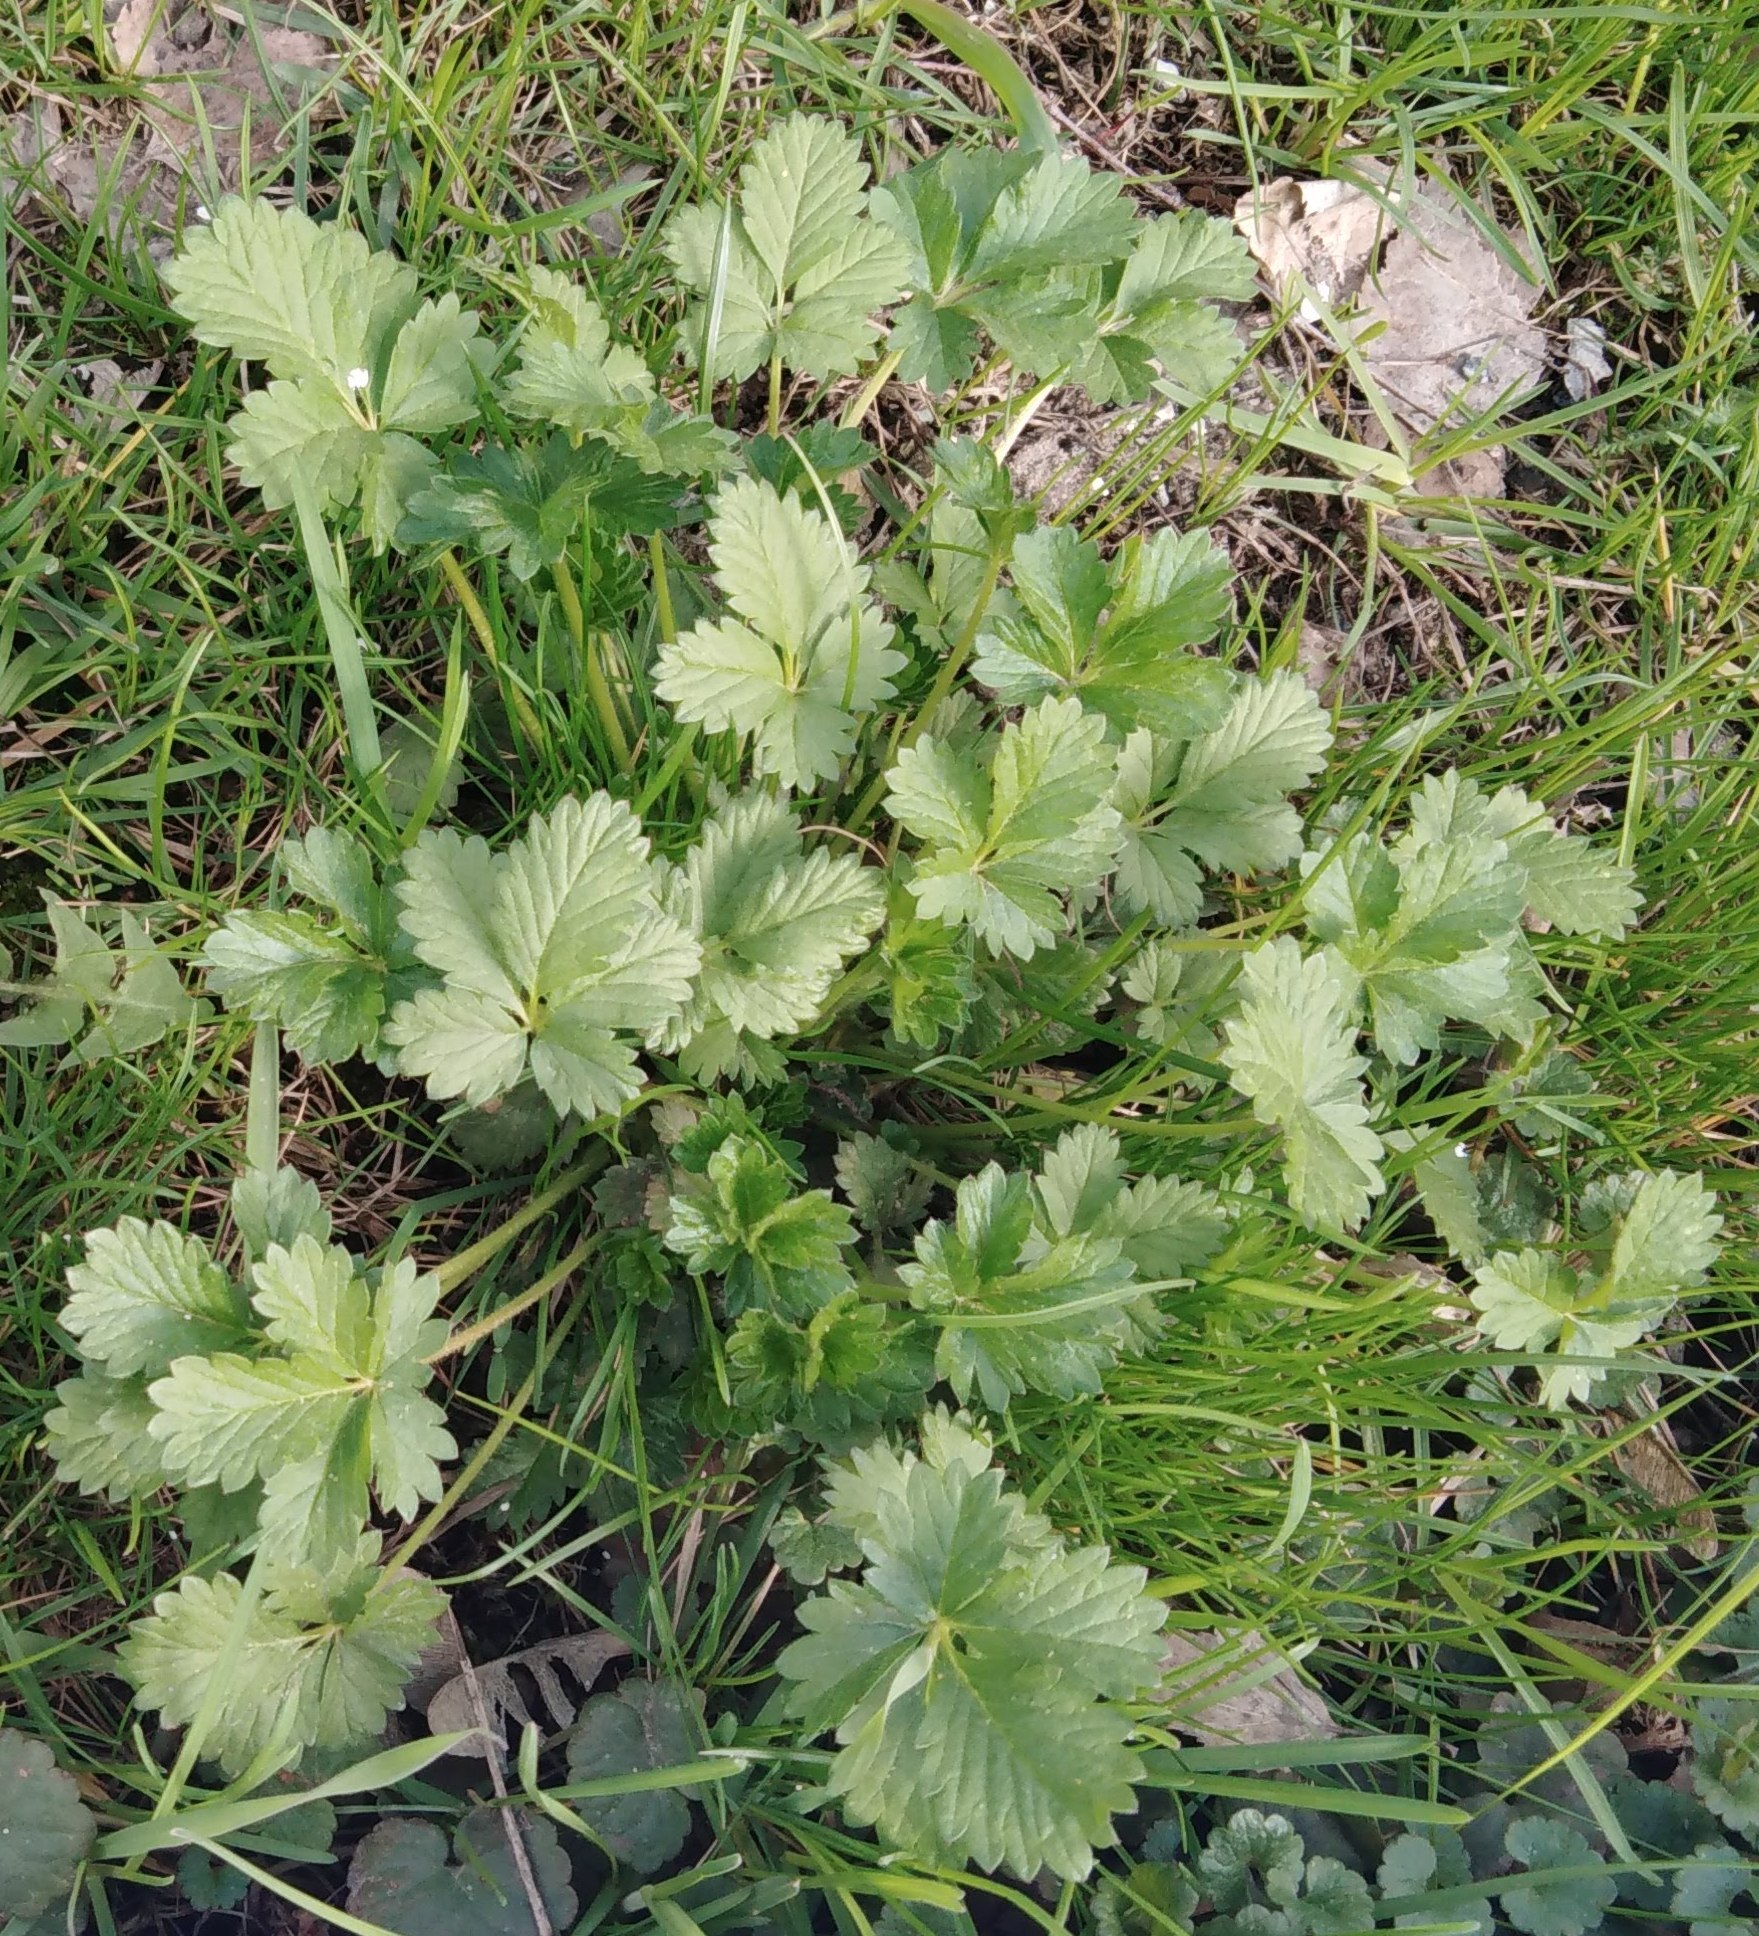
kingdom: Plantae
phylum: Tracheophyta
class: Magnoliopsida
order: Rosales
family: Rosaceae
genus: Potentilla
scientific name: Potentilla intermedia
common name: Downy cinquefoil
